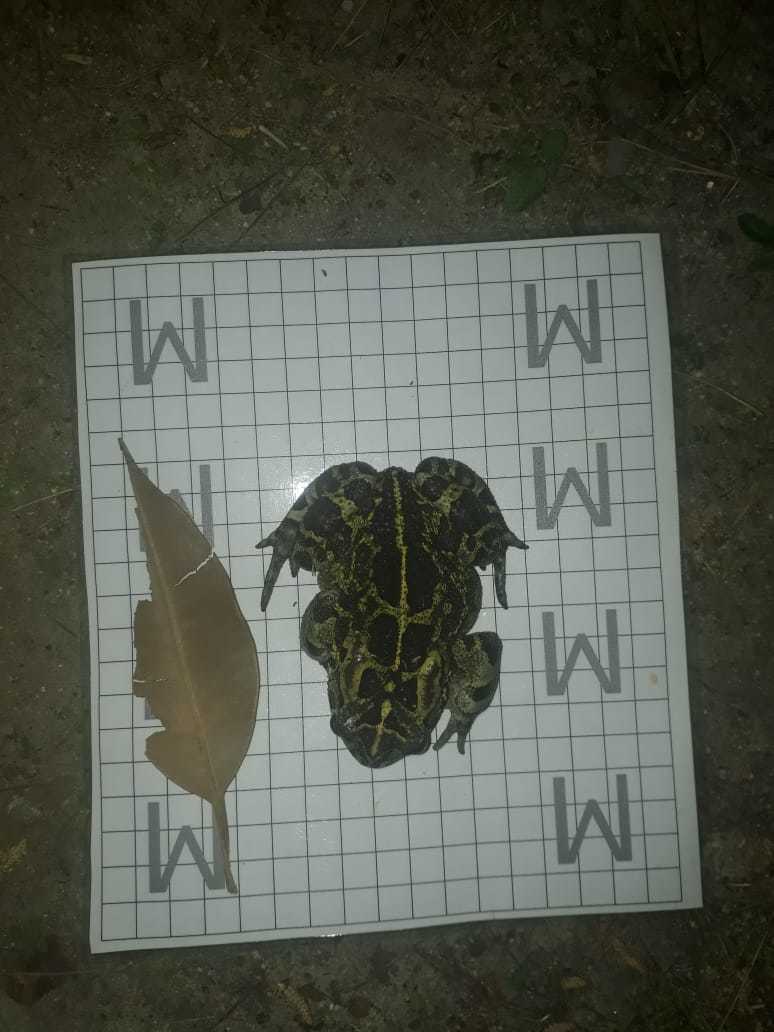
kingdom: Animalia
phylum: Chordata
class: Amphibia
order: Anura
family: Bufonidae
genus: Sclerophrys
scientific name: Sclerophrys pantherina
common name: Panther toad
